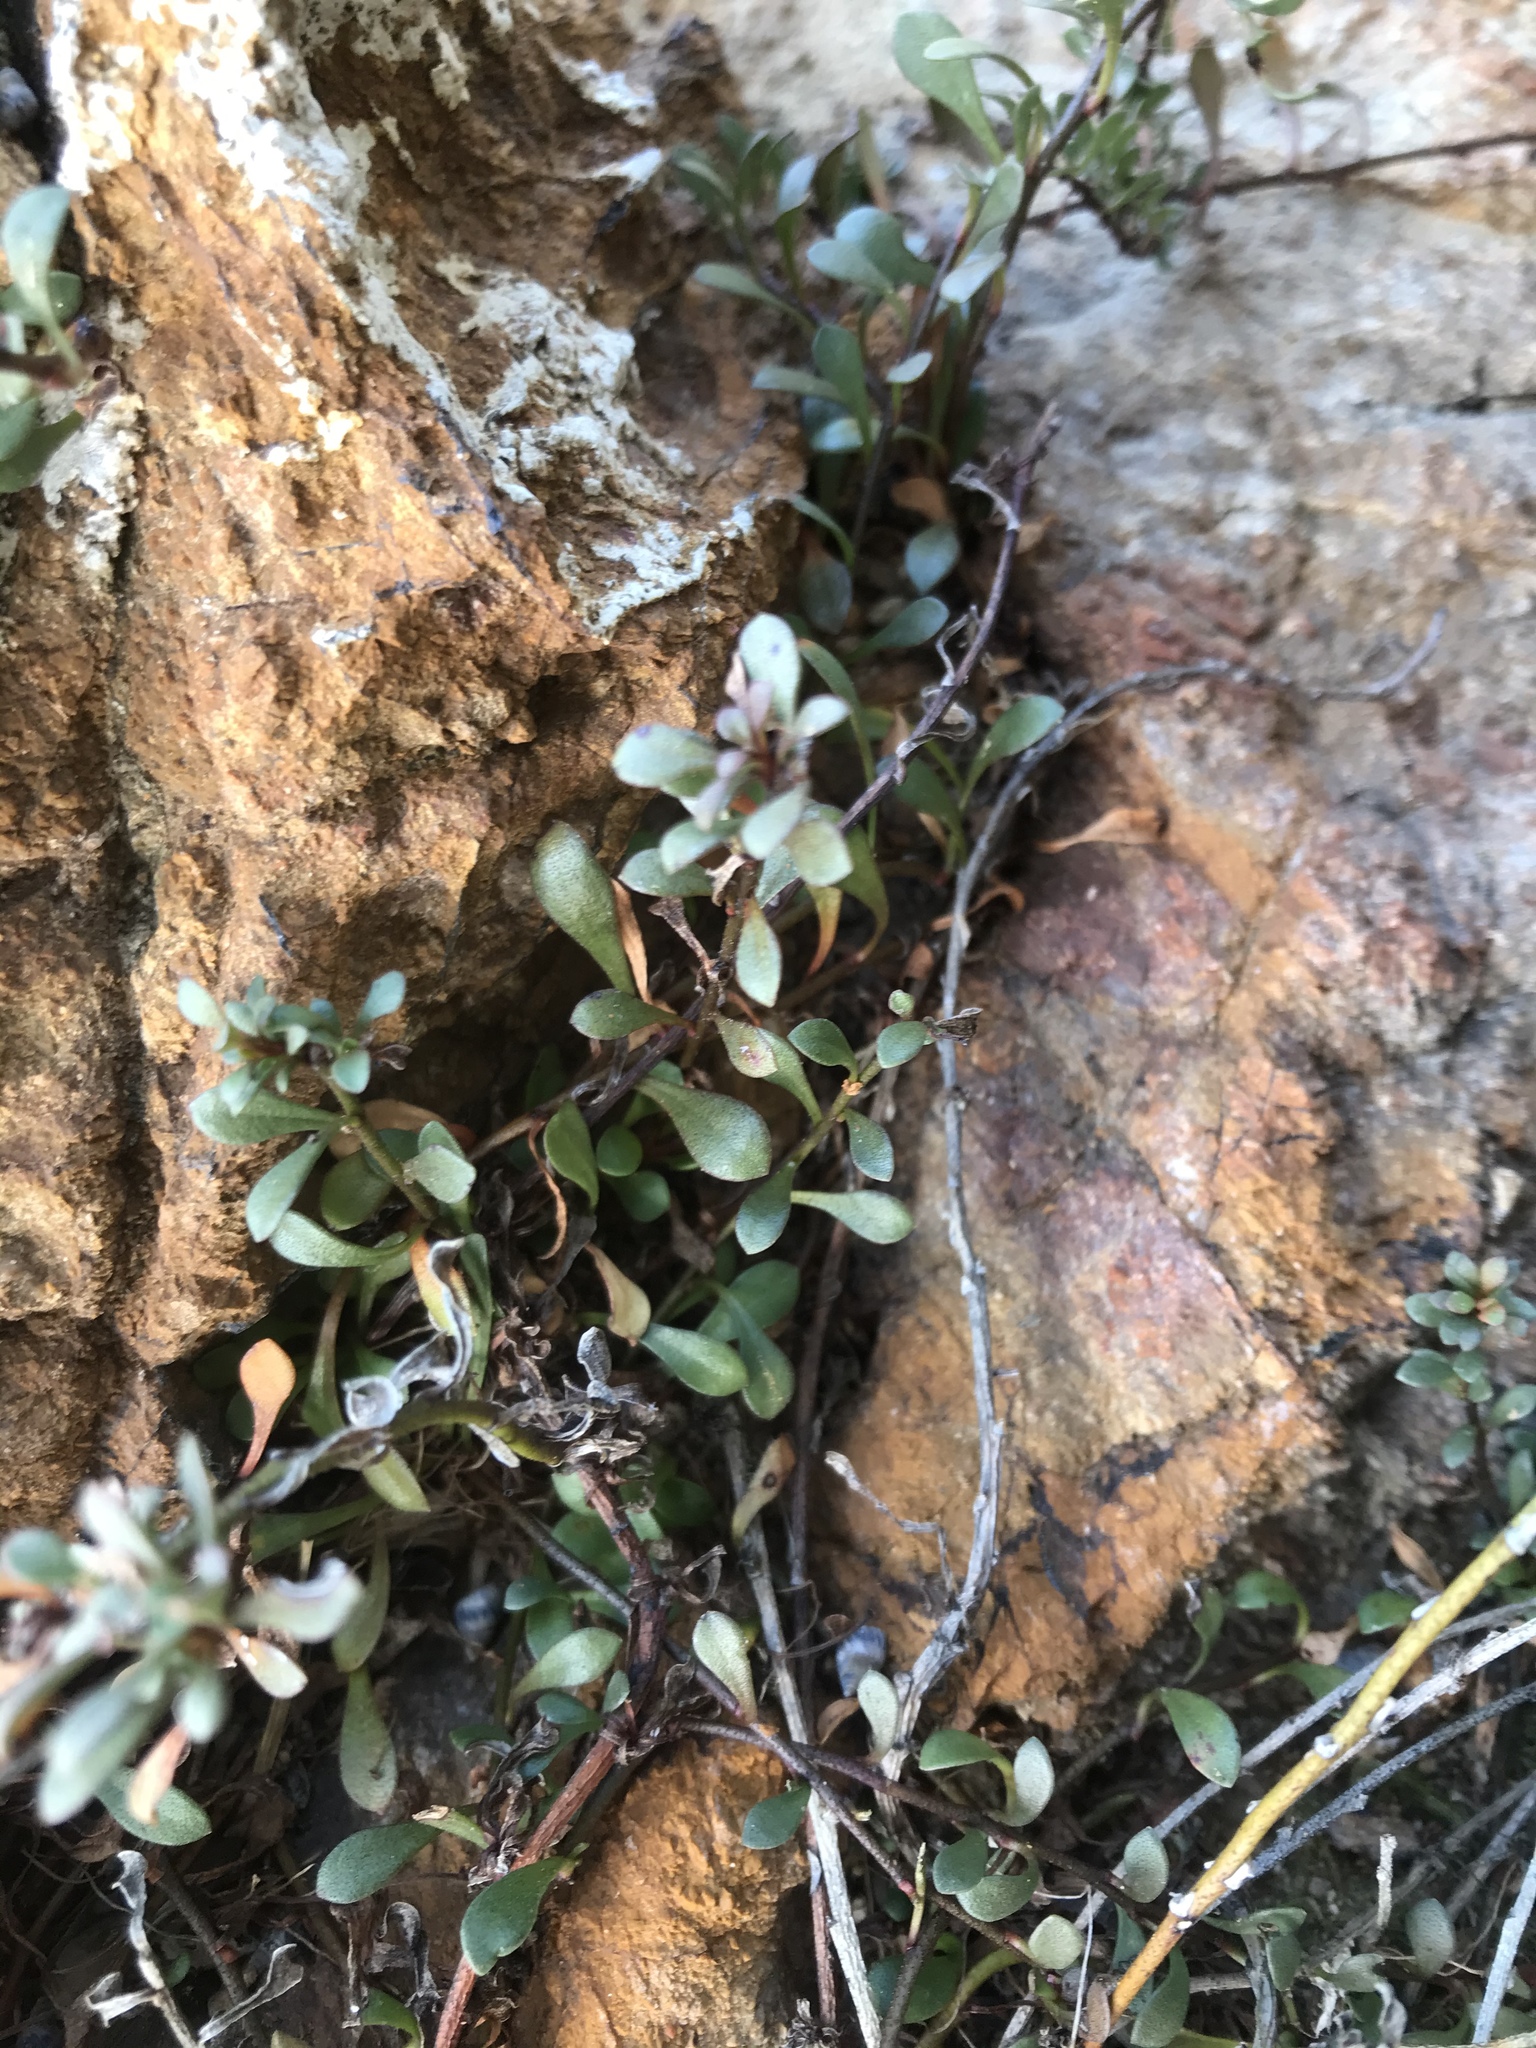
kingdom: Plantae
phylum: Tracheophyta
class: Magnoliopsida
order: Ericales
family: Primulaceae
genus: Samolus
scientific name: Samolus repens
